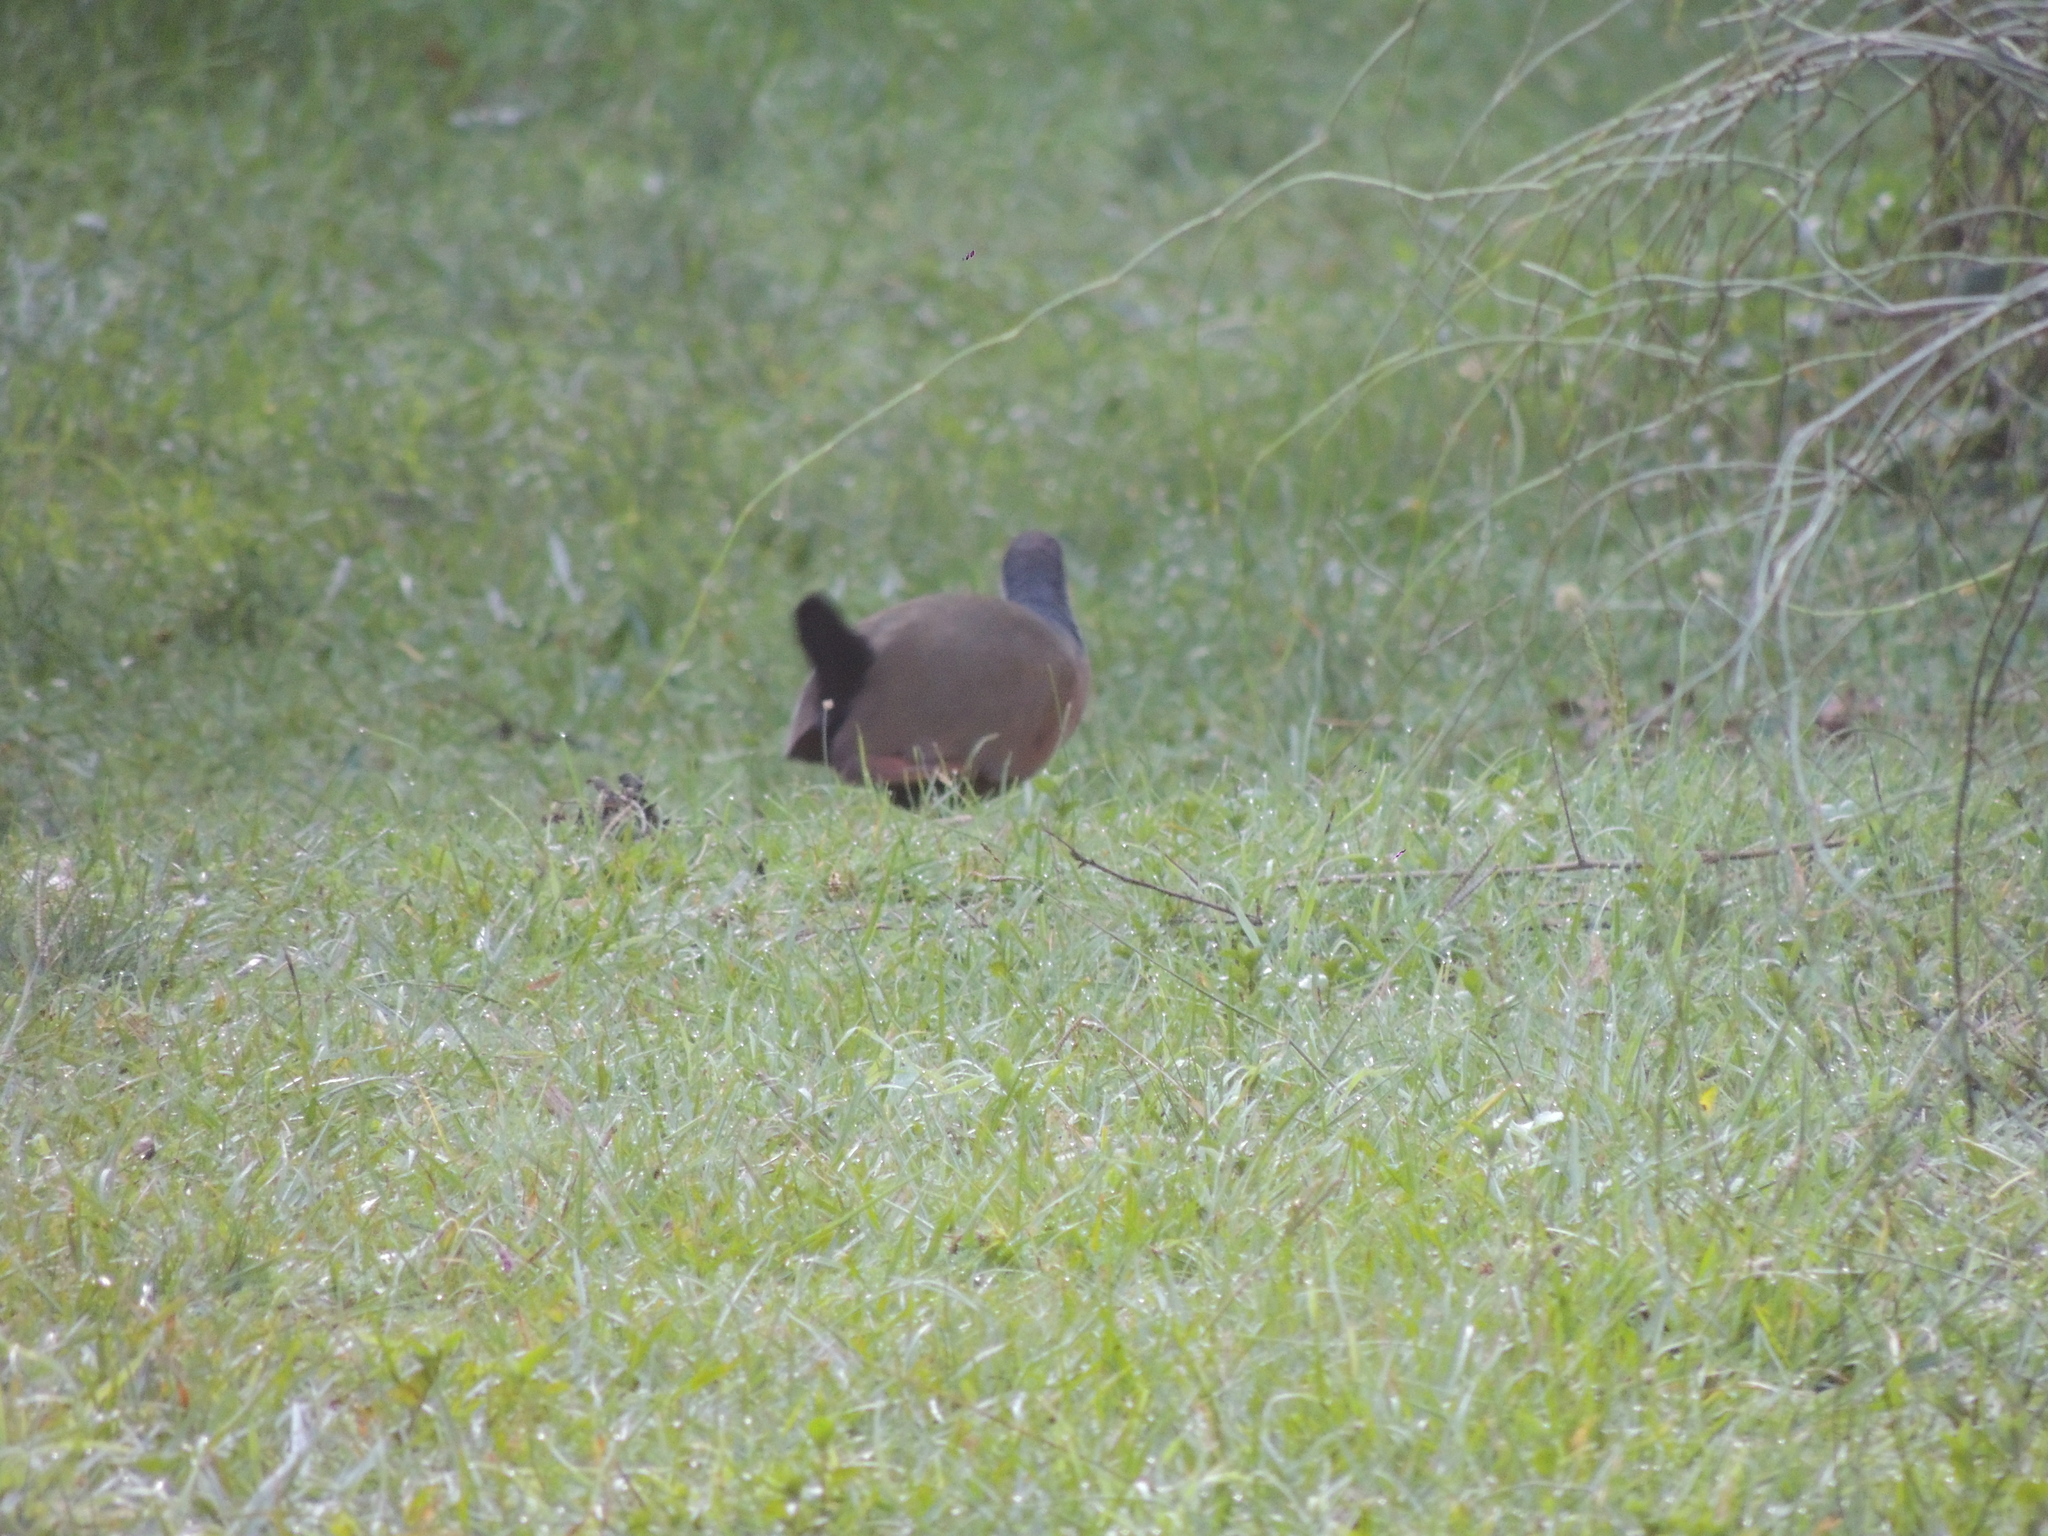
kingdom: Animalia
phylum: Chordata
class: Aves
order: Gruiformes
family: Rallidae
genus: Aramides
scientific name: Aramides cajanea
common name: Gray-necked wood-rail
